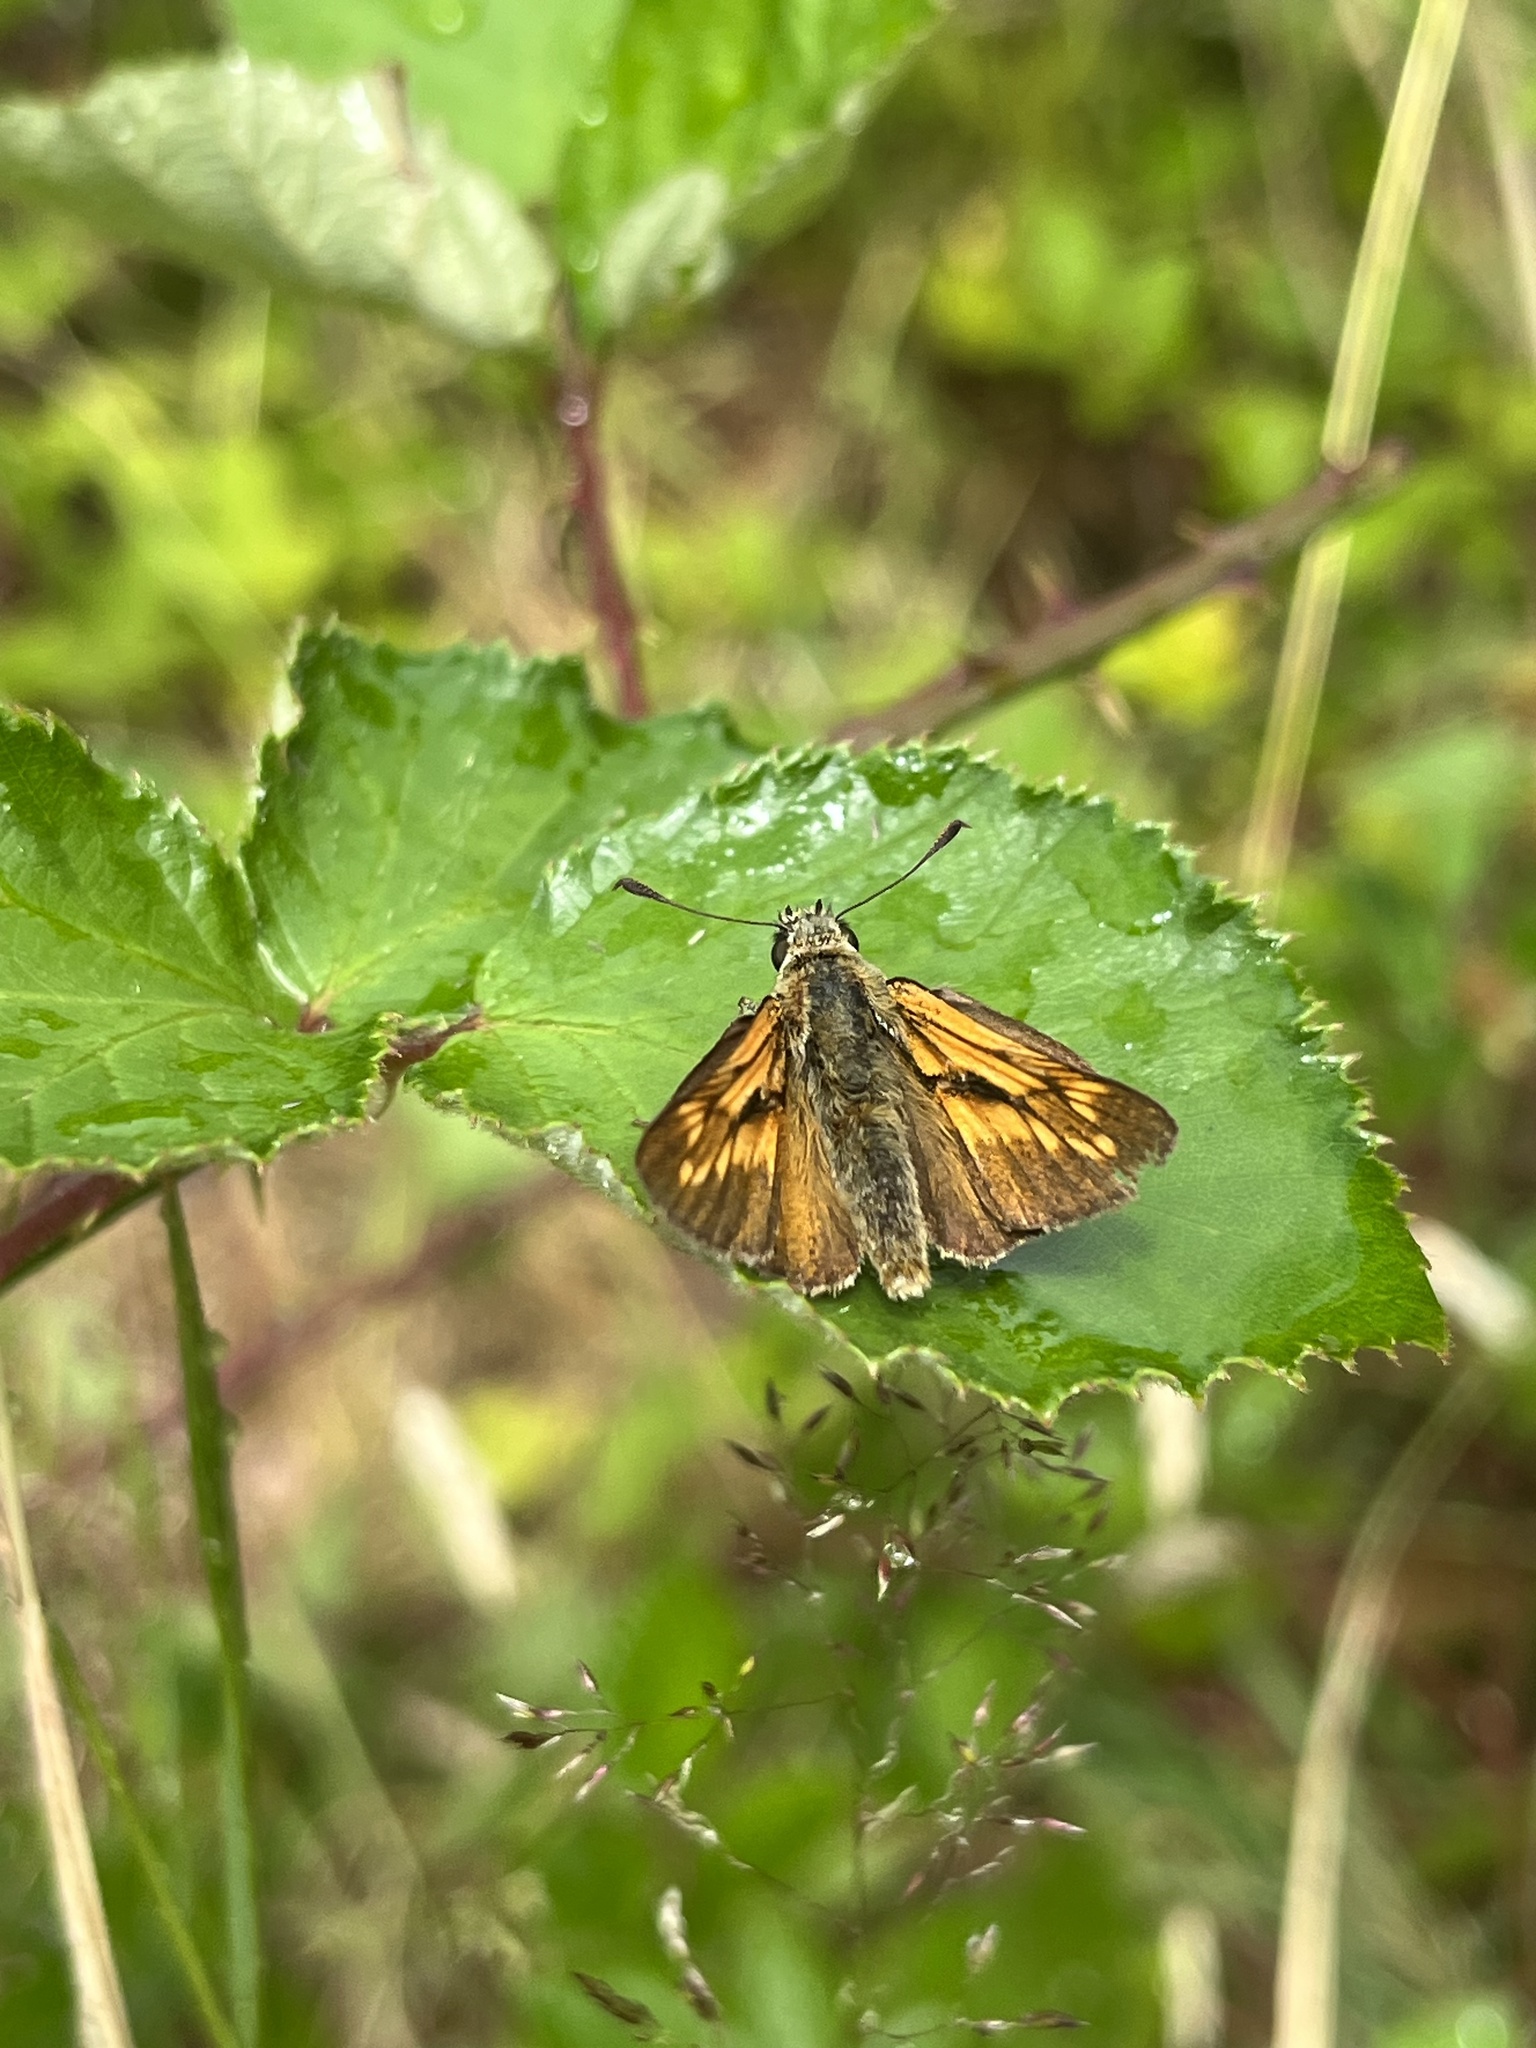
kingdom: Animalia
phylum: Arthropoda
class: Insecta
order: Lepidoptera
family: Hesperiidae
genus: Ochlodes
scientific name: Ochlodes venata
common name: Large skipper
